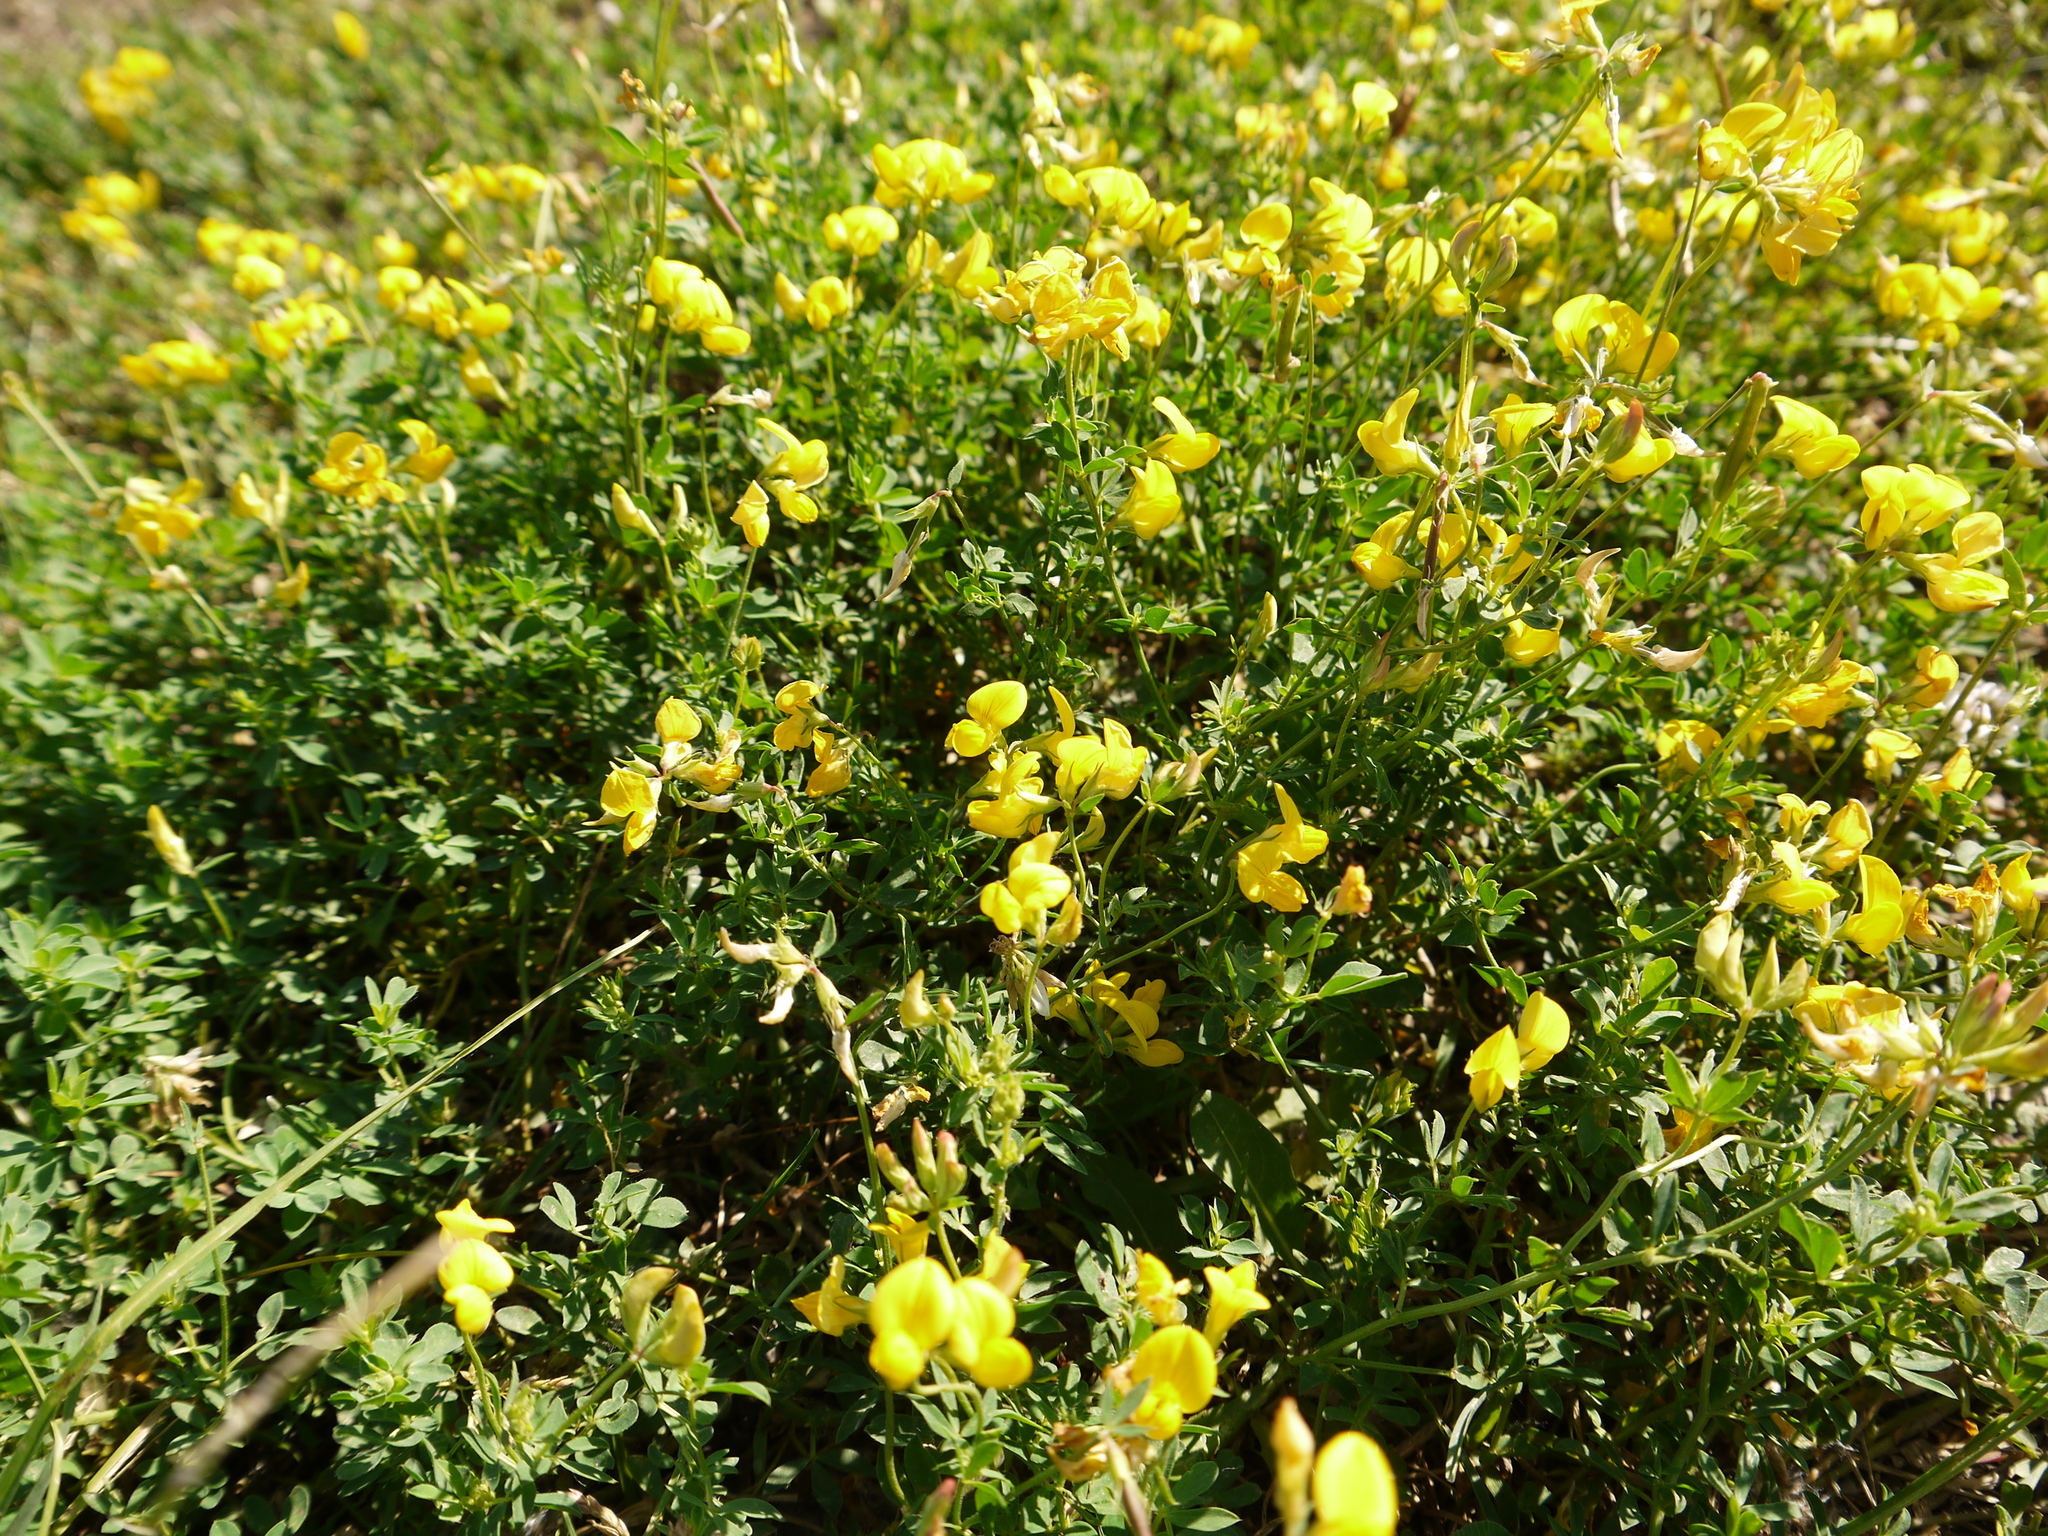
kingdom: Plantae
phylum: Tracheophyta
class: Magnoliopsida
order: Fabales
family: Fabaceae
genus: Lotus
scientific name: Lotus corniculatus
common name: Common bird's-foot-trefoil
